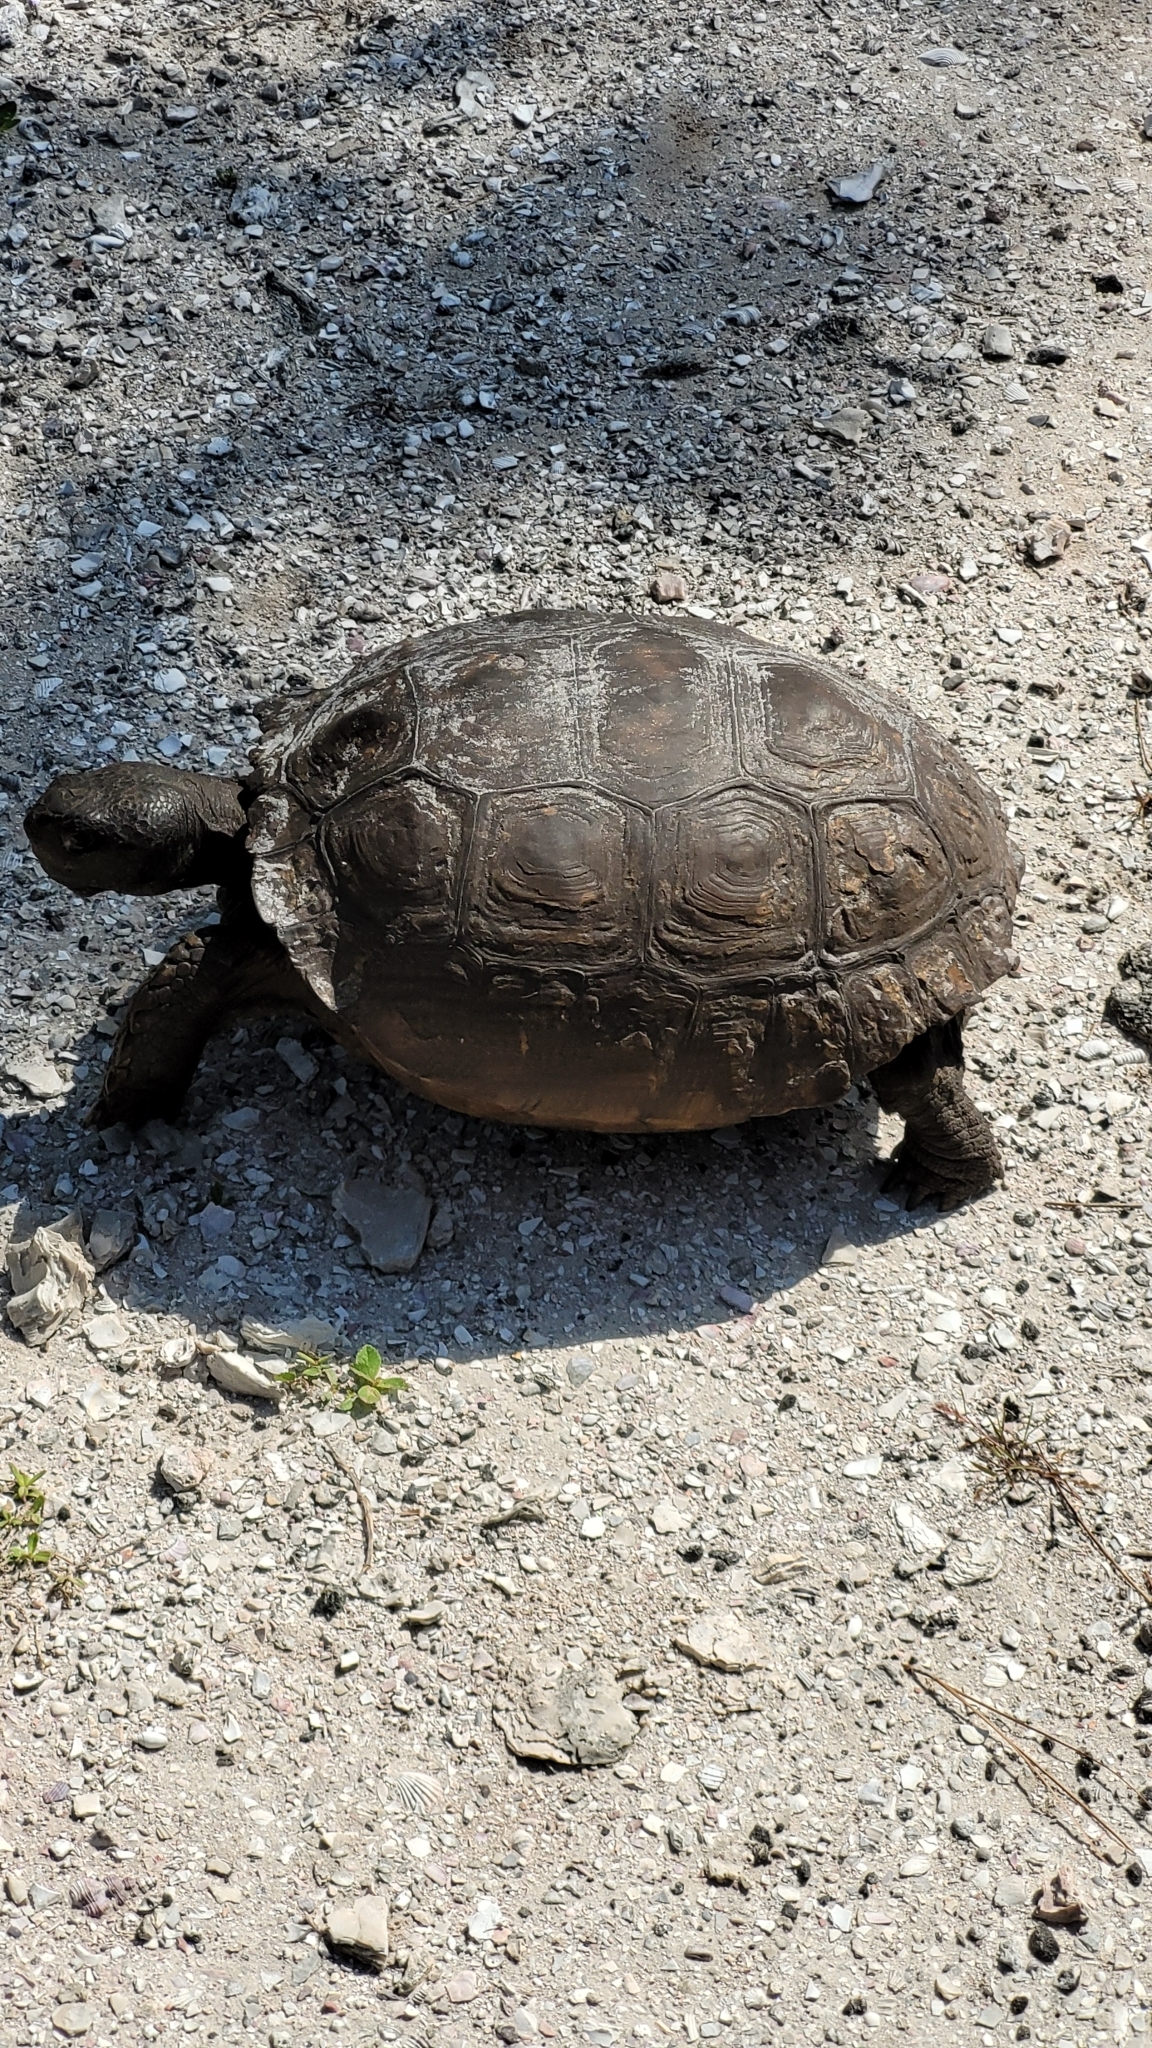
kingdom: Animalia
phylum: Chordata
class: Testudines
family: Testudinidae
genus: Gopherus
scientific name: Gopherus polyphemus
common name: Florida gopher tortoise
